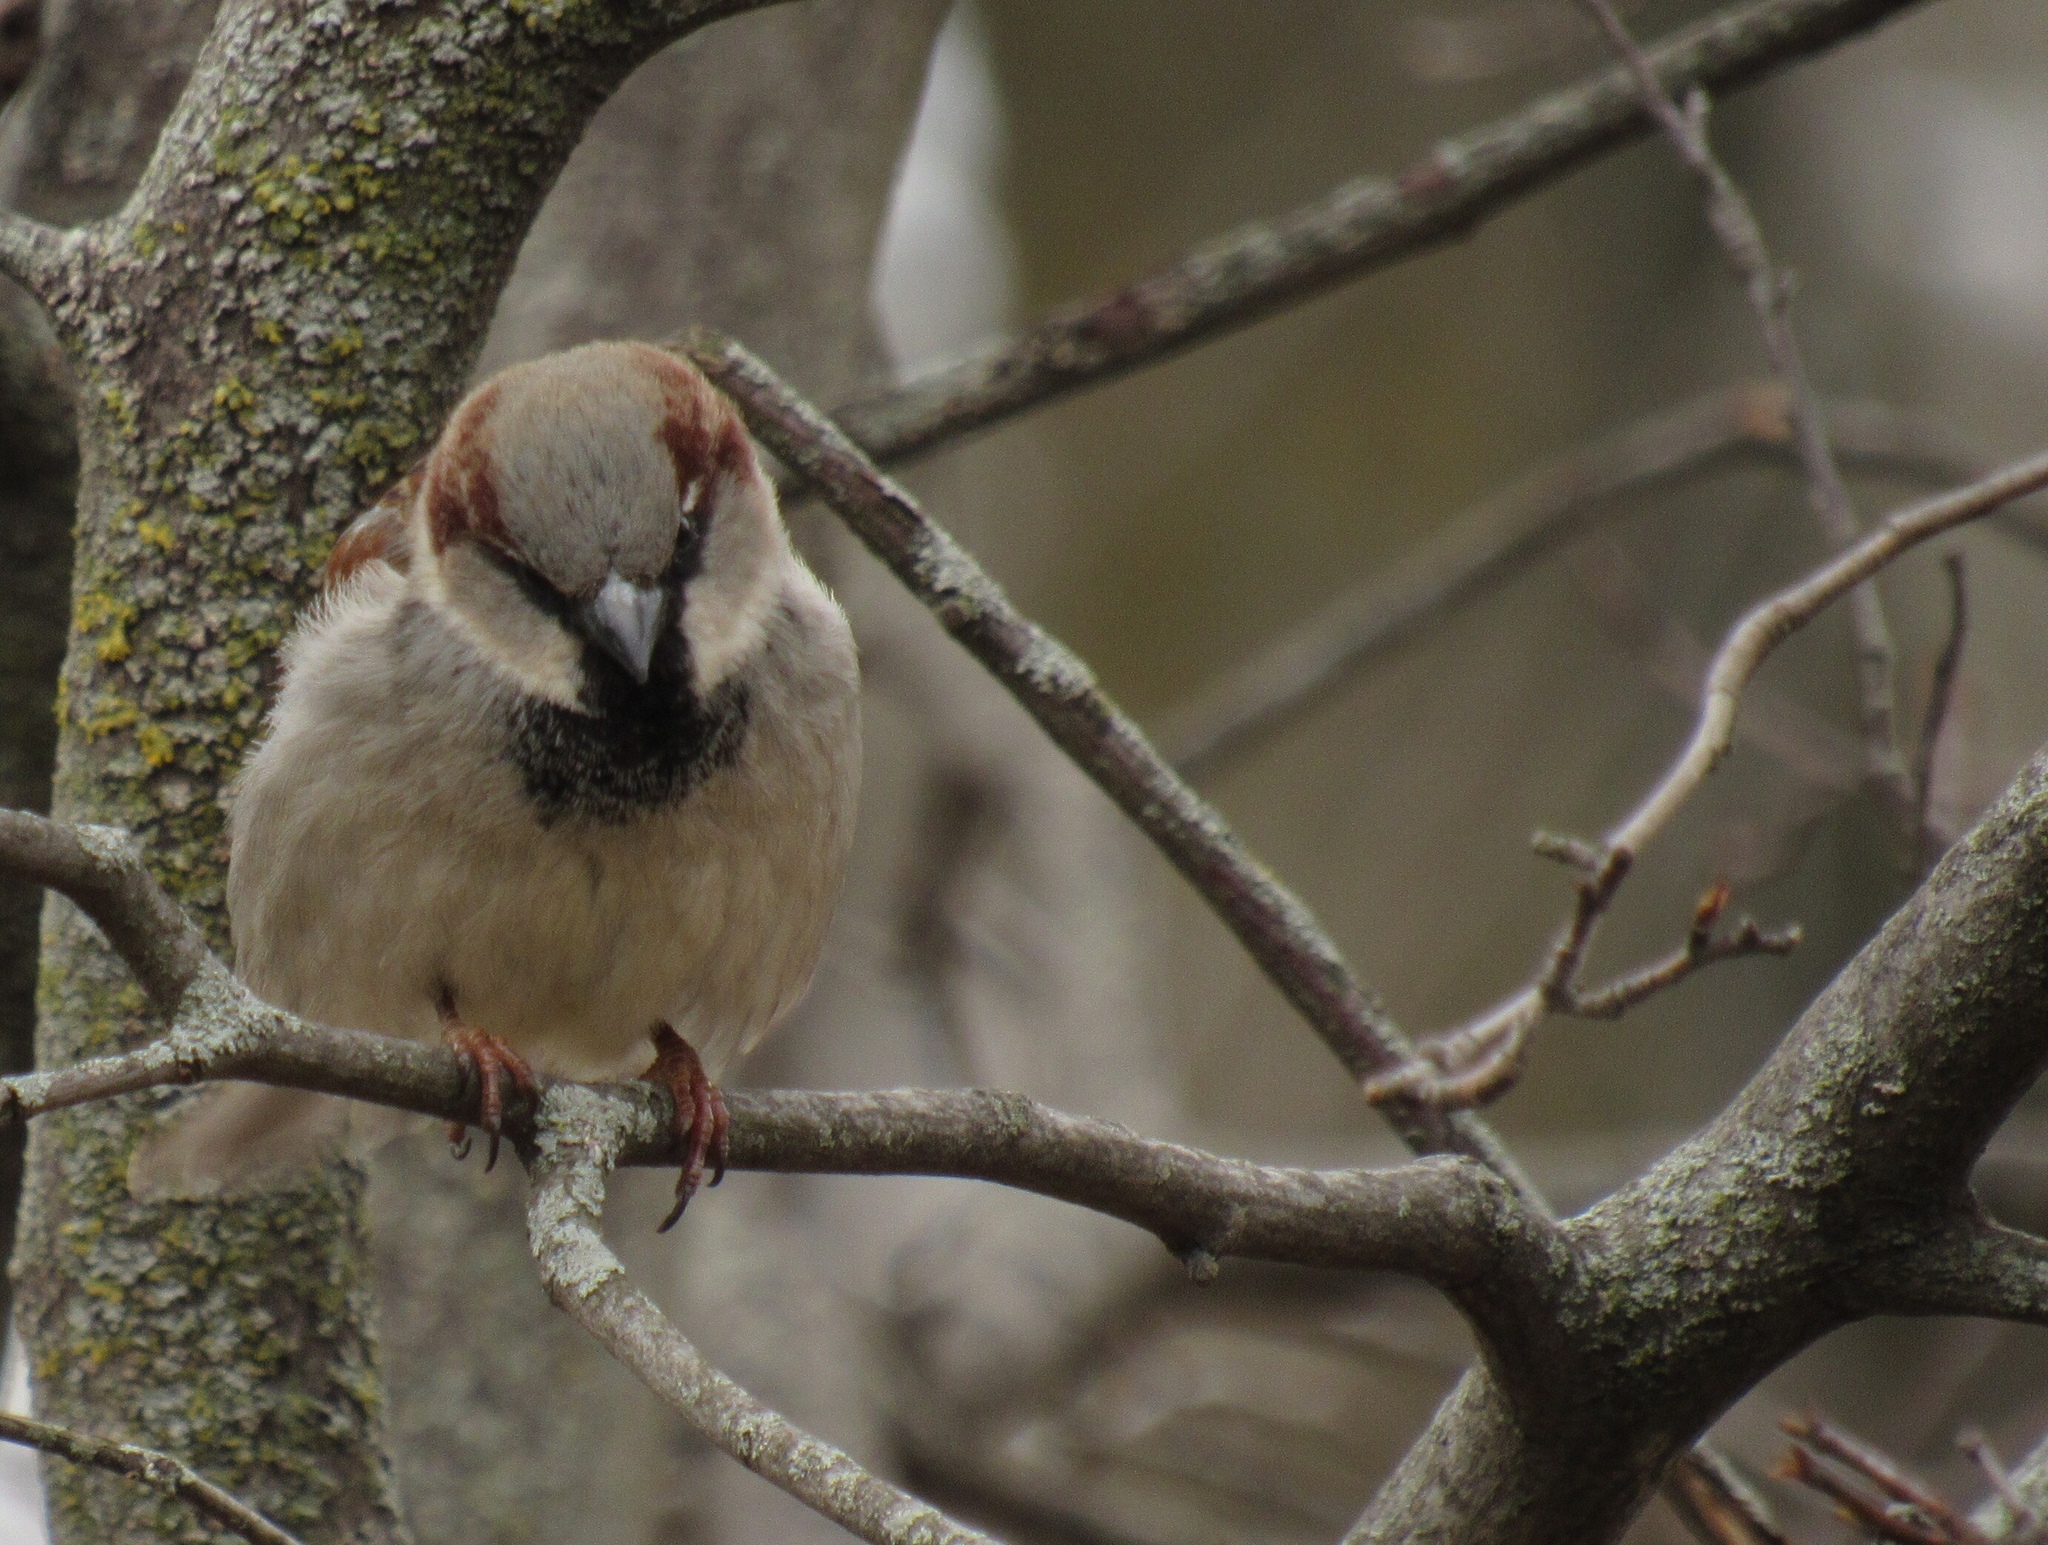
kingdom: Animalia
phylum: Chordata
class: Aves
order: Passeriformes
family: Passeridae
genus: Passer
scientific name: Passer domesticus
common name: House sparrow
